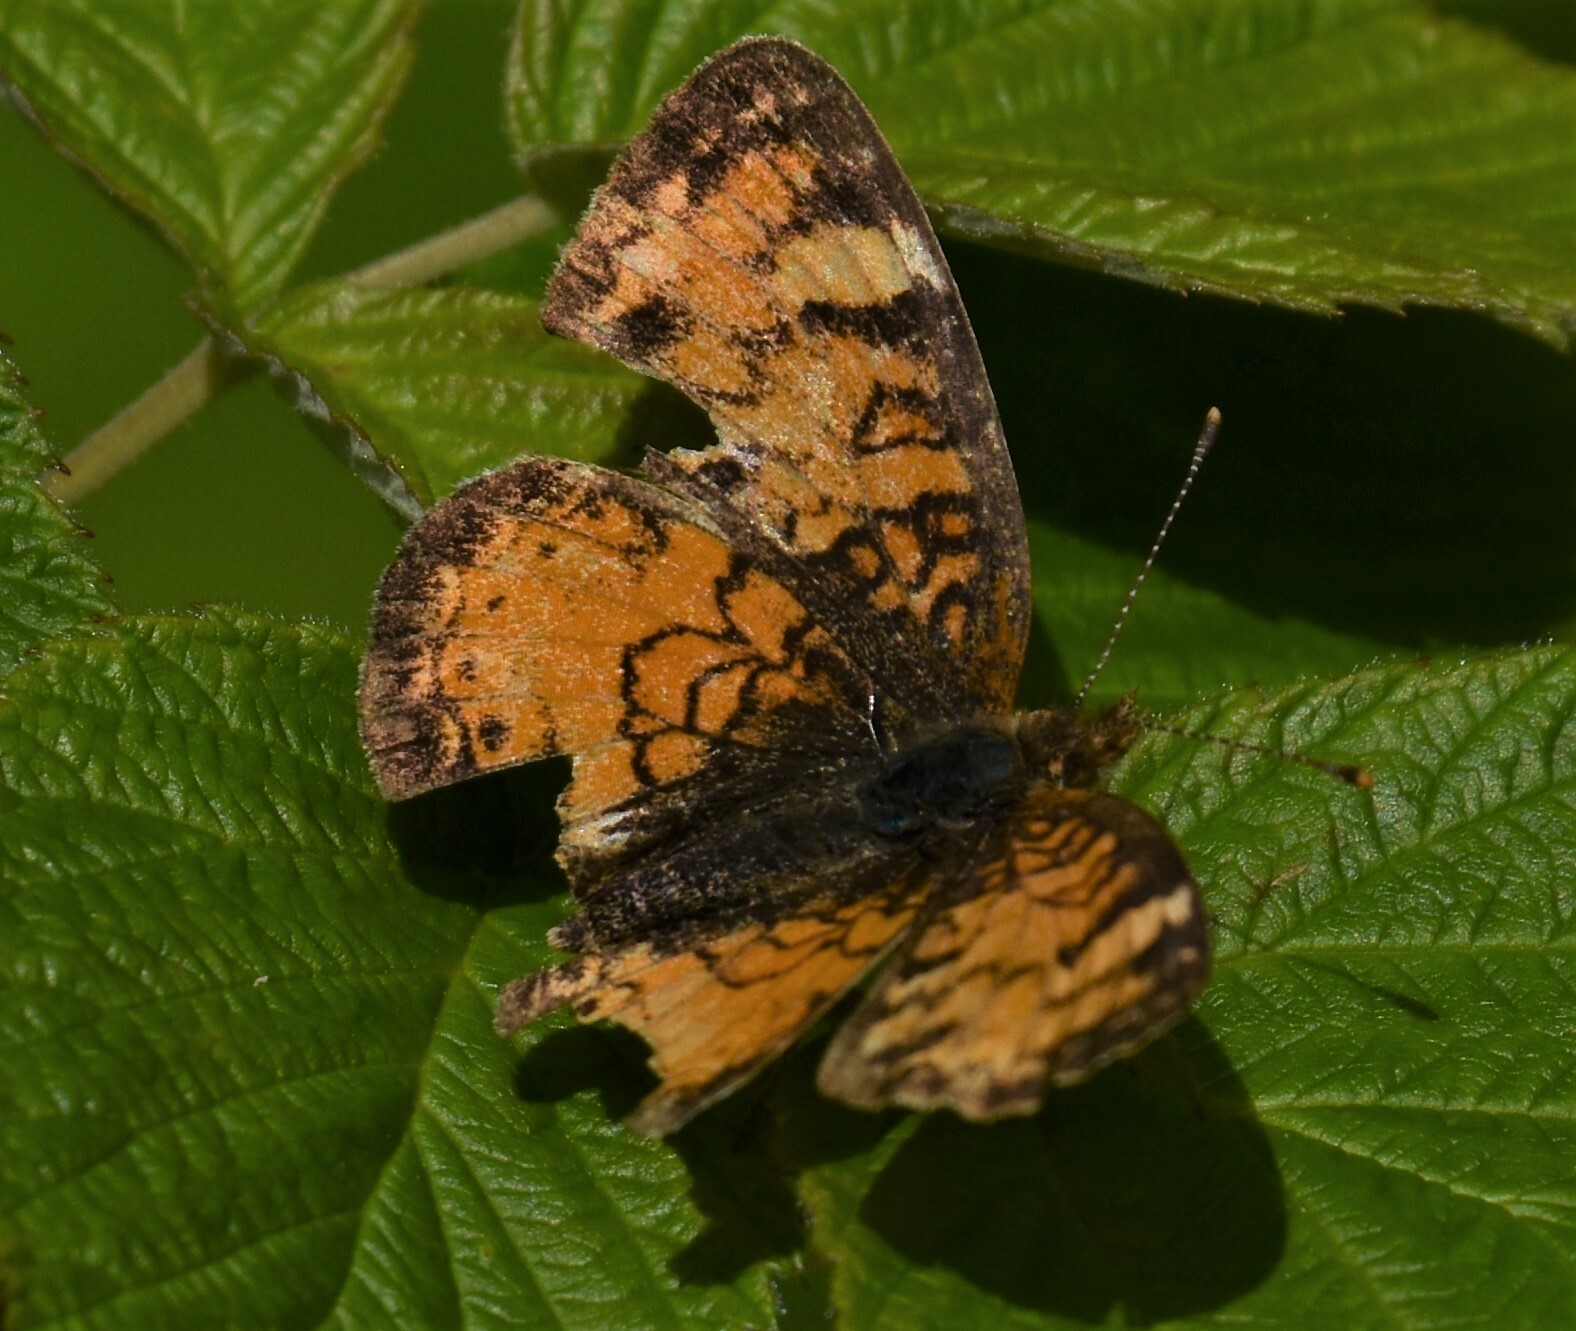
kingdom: Animalia
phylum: Arthropoda
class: Insecta
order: Lepidoptera
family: Nymphalidae
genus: Phyciodes
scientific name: Phyciodes tharos
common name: Pearl crescent
